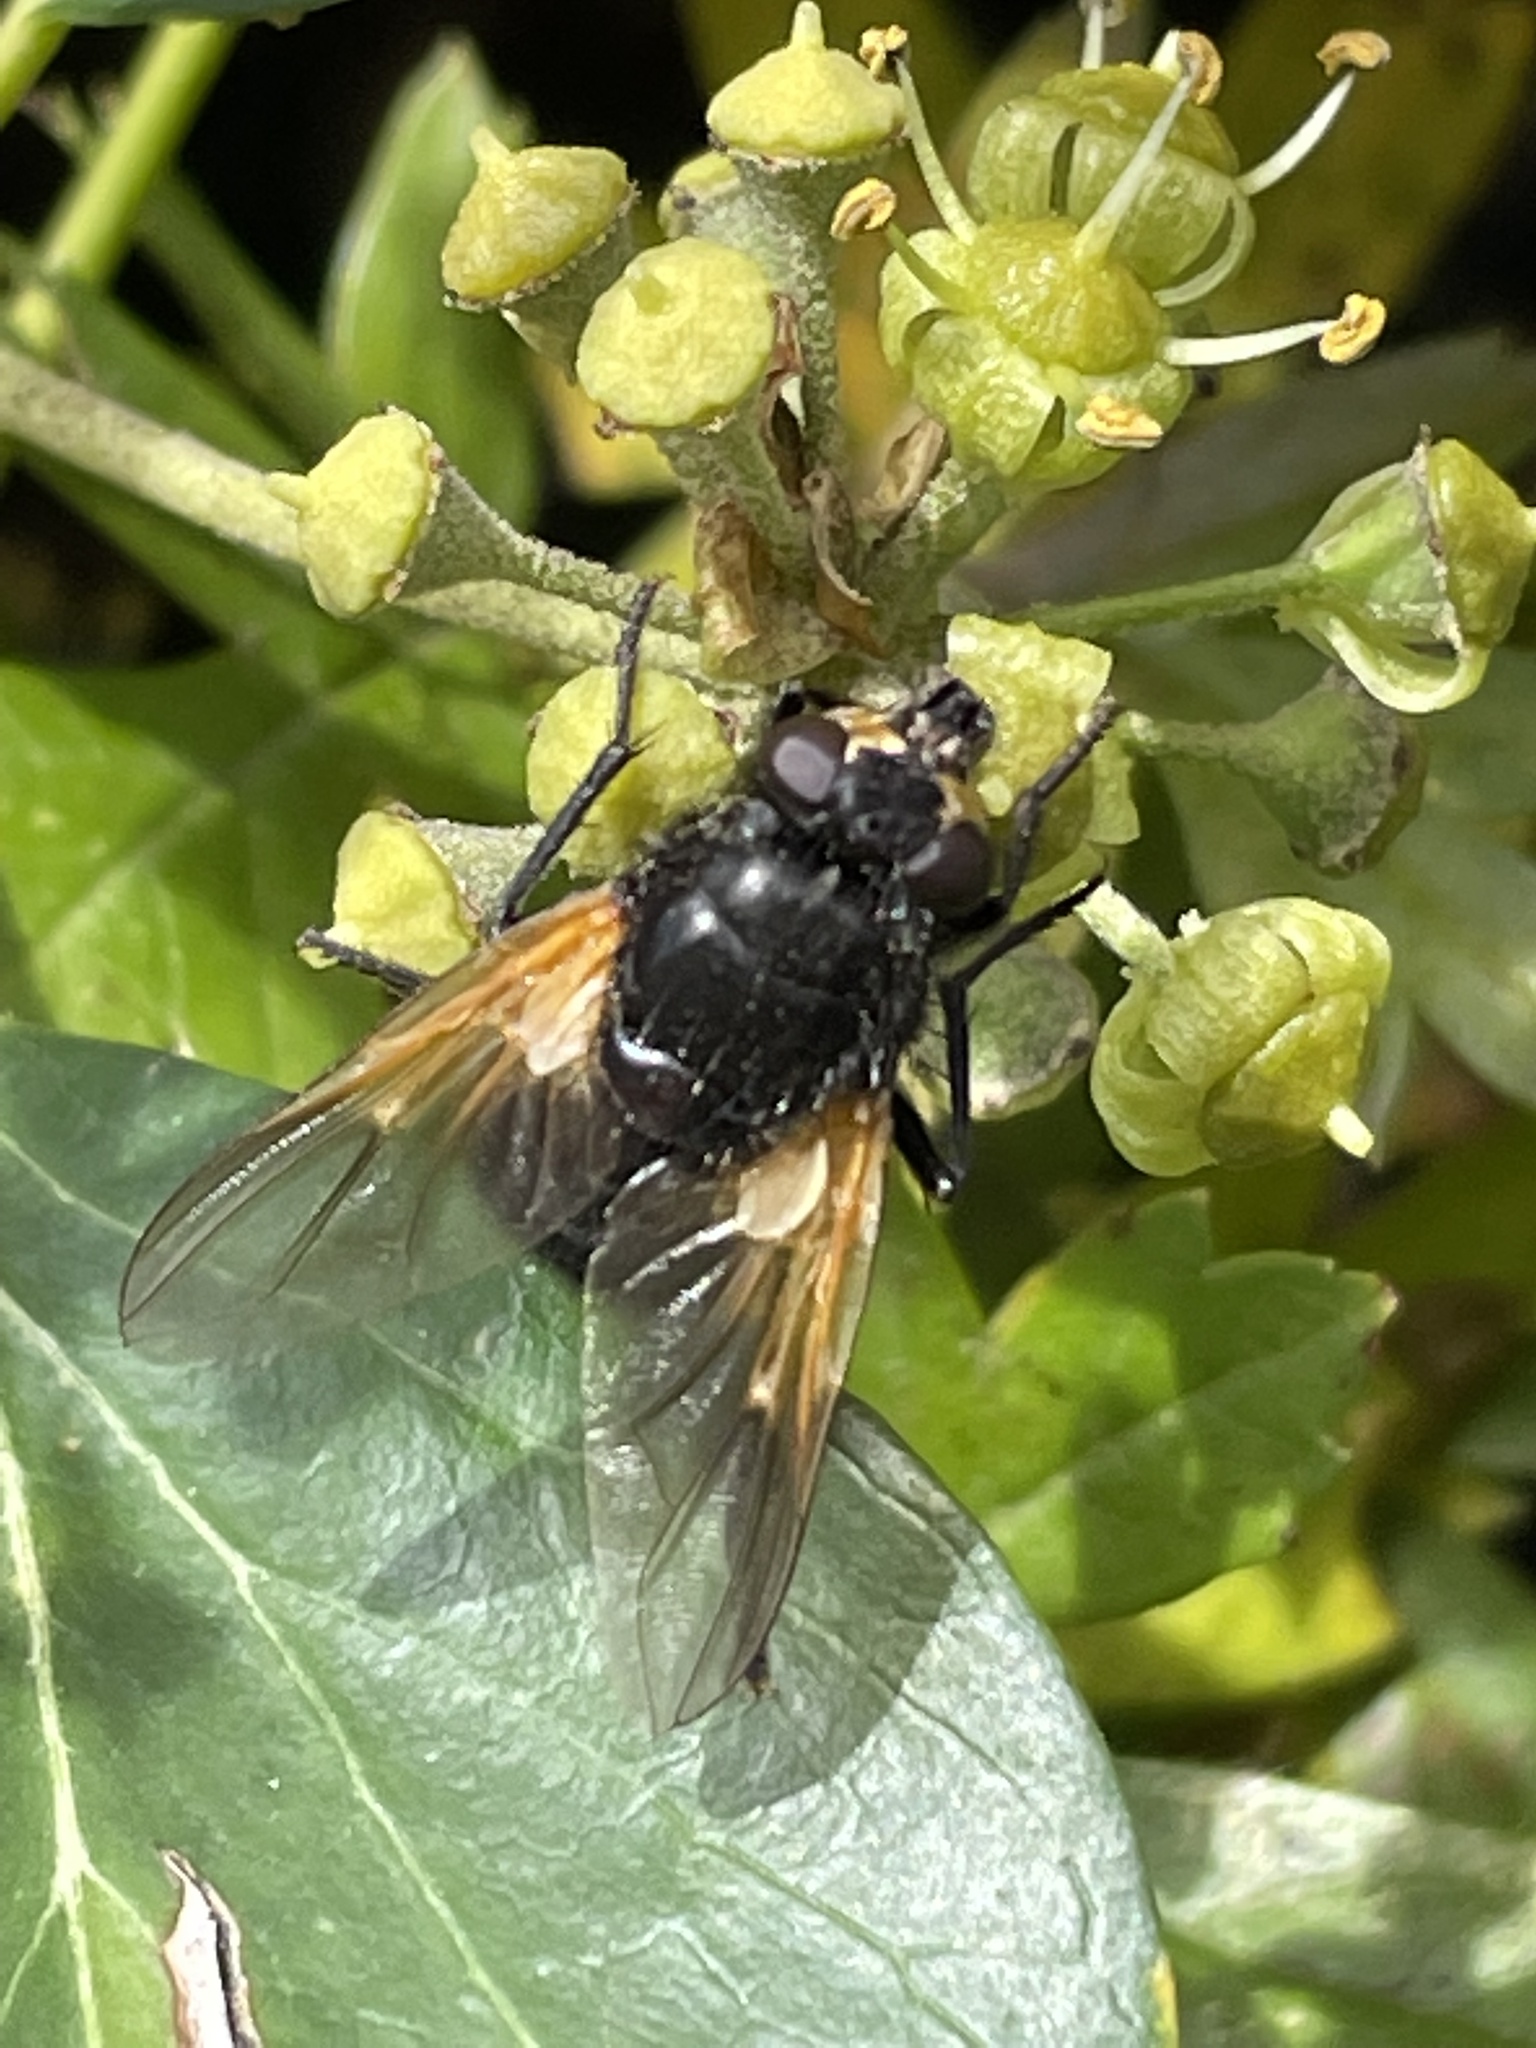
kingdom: Animalia
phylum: Arthropoda
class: Insecta
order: Diptera
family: Muscidae
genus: Mesembrina
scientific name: Mesembrina meridiana
